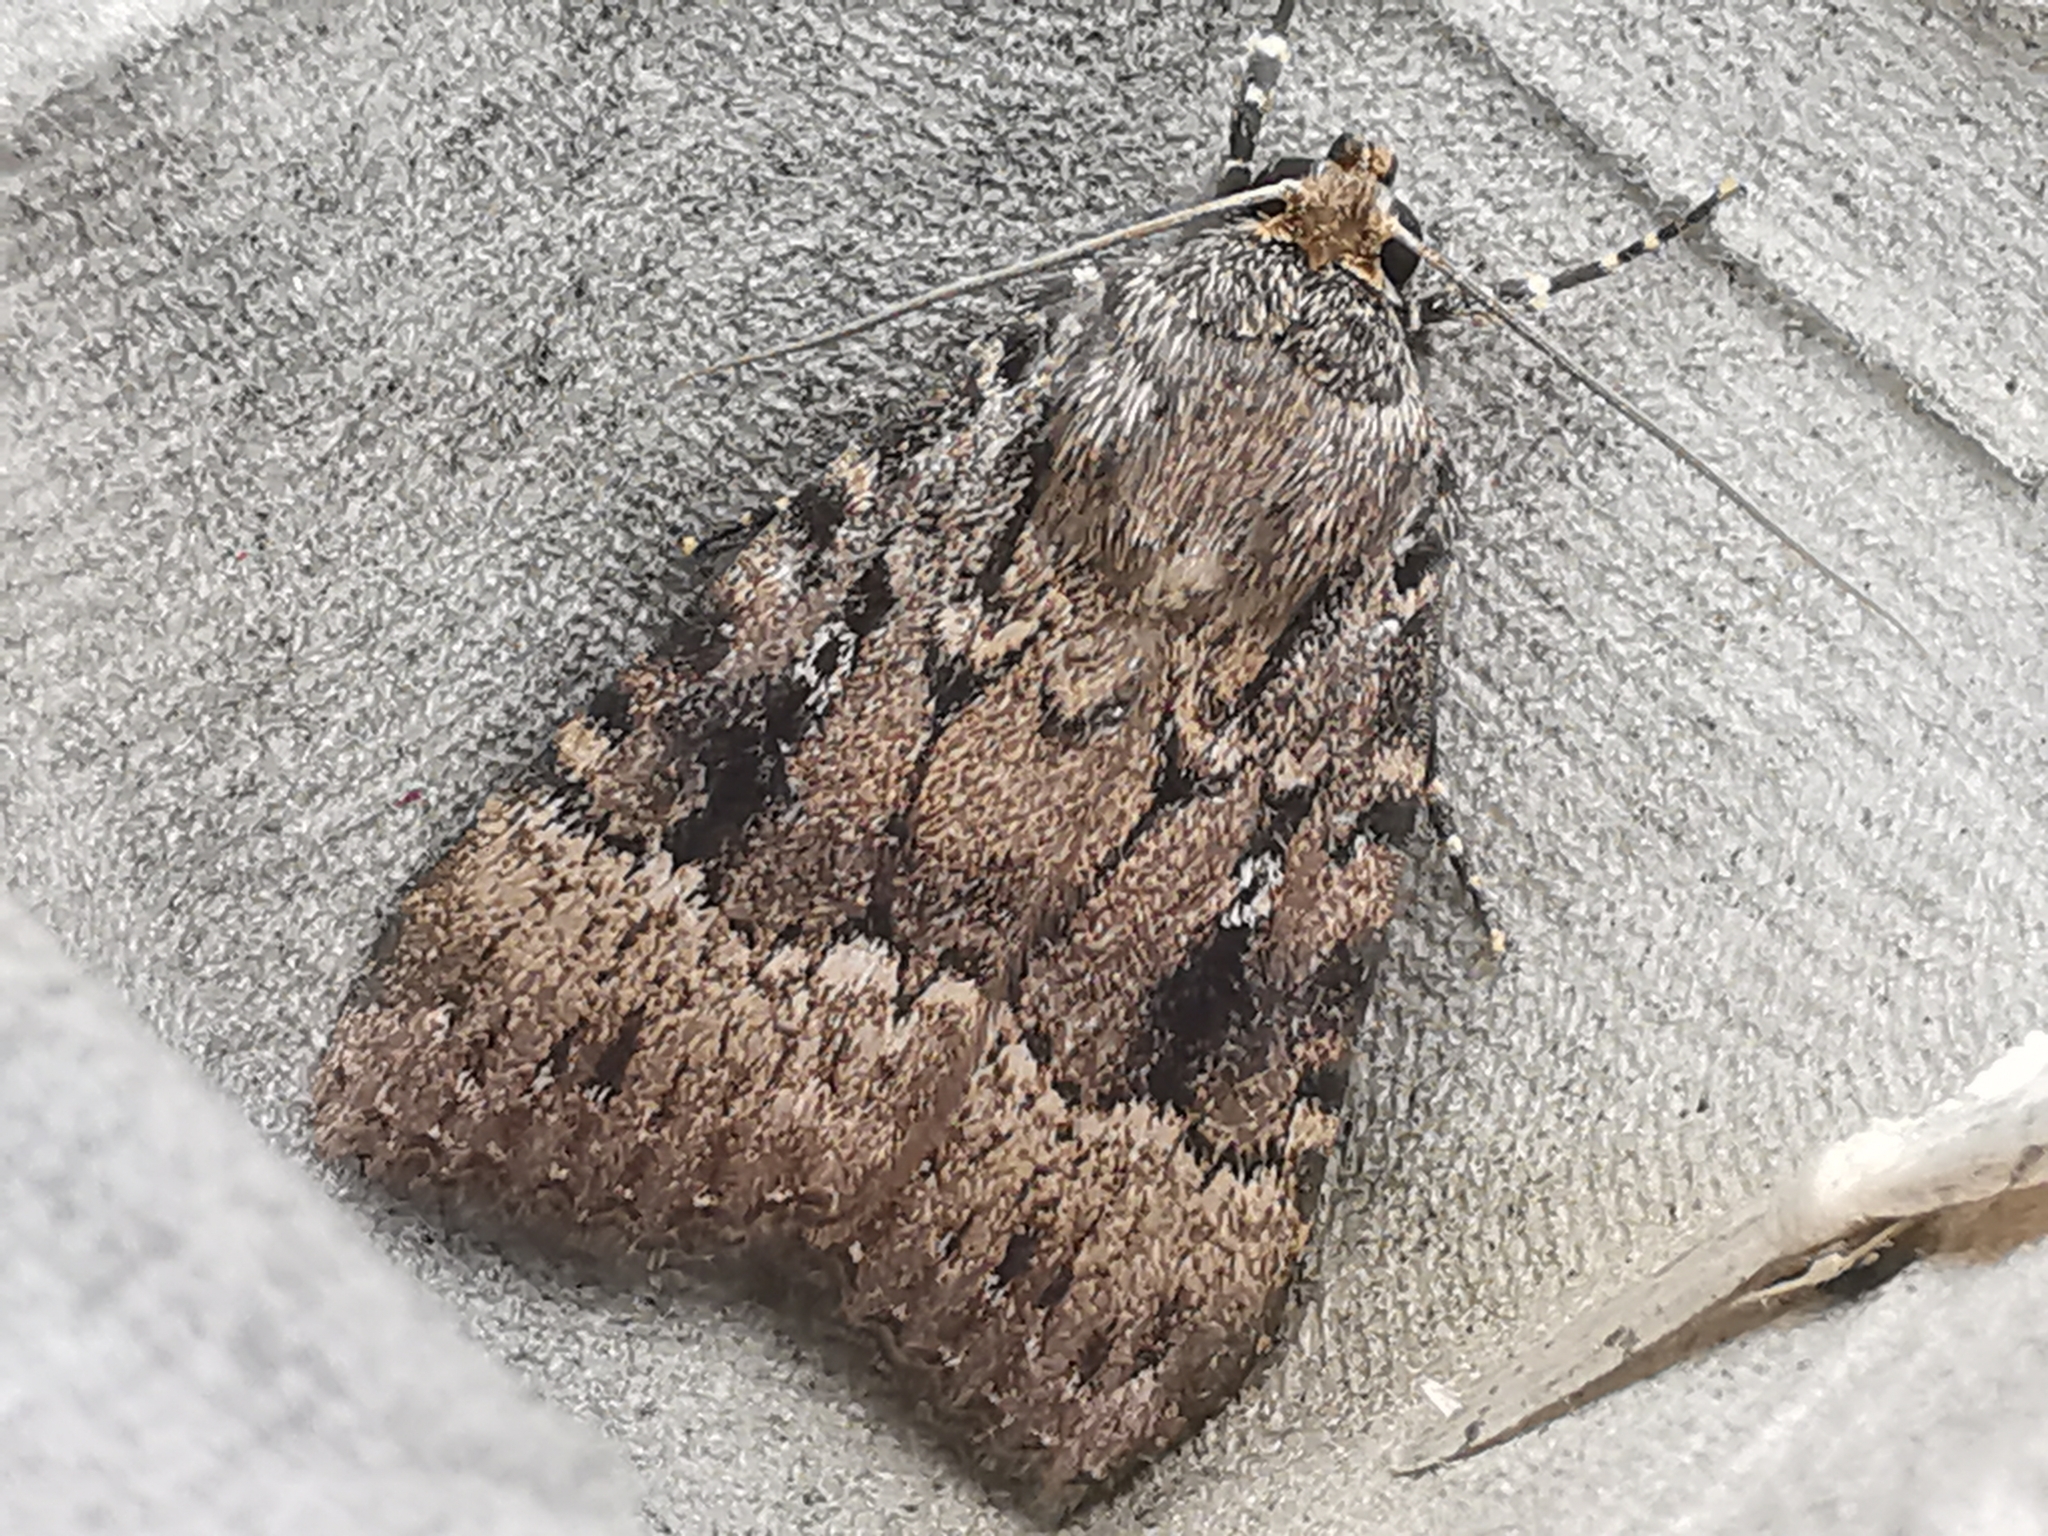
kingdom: Animalia
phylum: Arthropoda
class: Insecta
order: Lepidoptera
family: Noctuidae
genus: Amphipyra
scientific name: Amphipyra pyramidea
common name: Copper underwing
